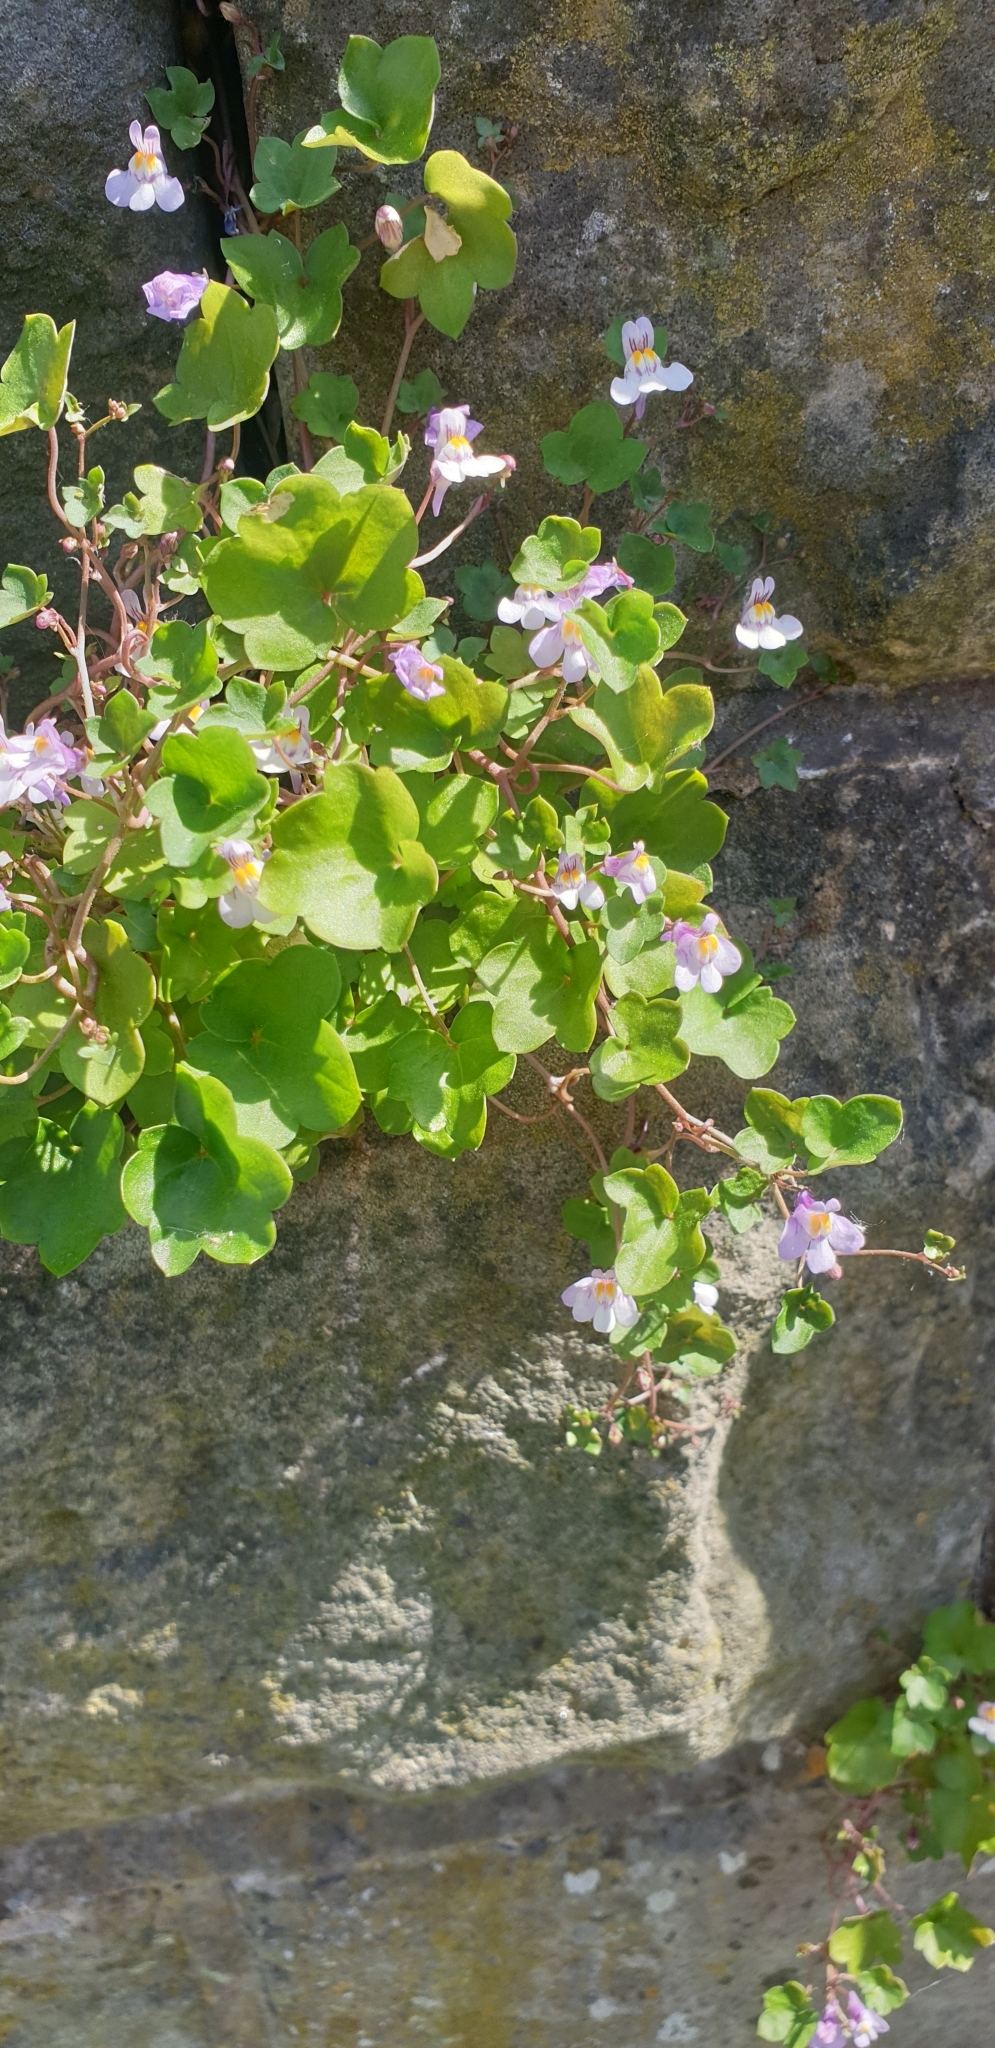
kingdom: Plantae
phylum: Tracheophyta
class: Magnoliopsida
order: Lamiales
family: Plantaginaceae
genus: Cymbalaria
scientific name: Cymbalaria muralis
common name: Ivy-leaved toadflax
